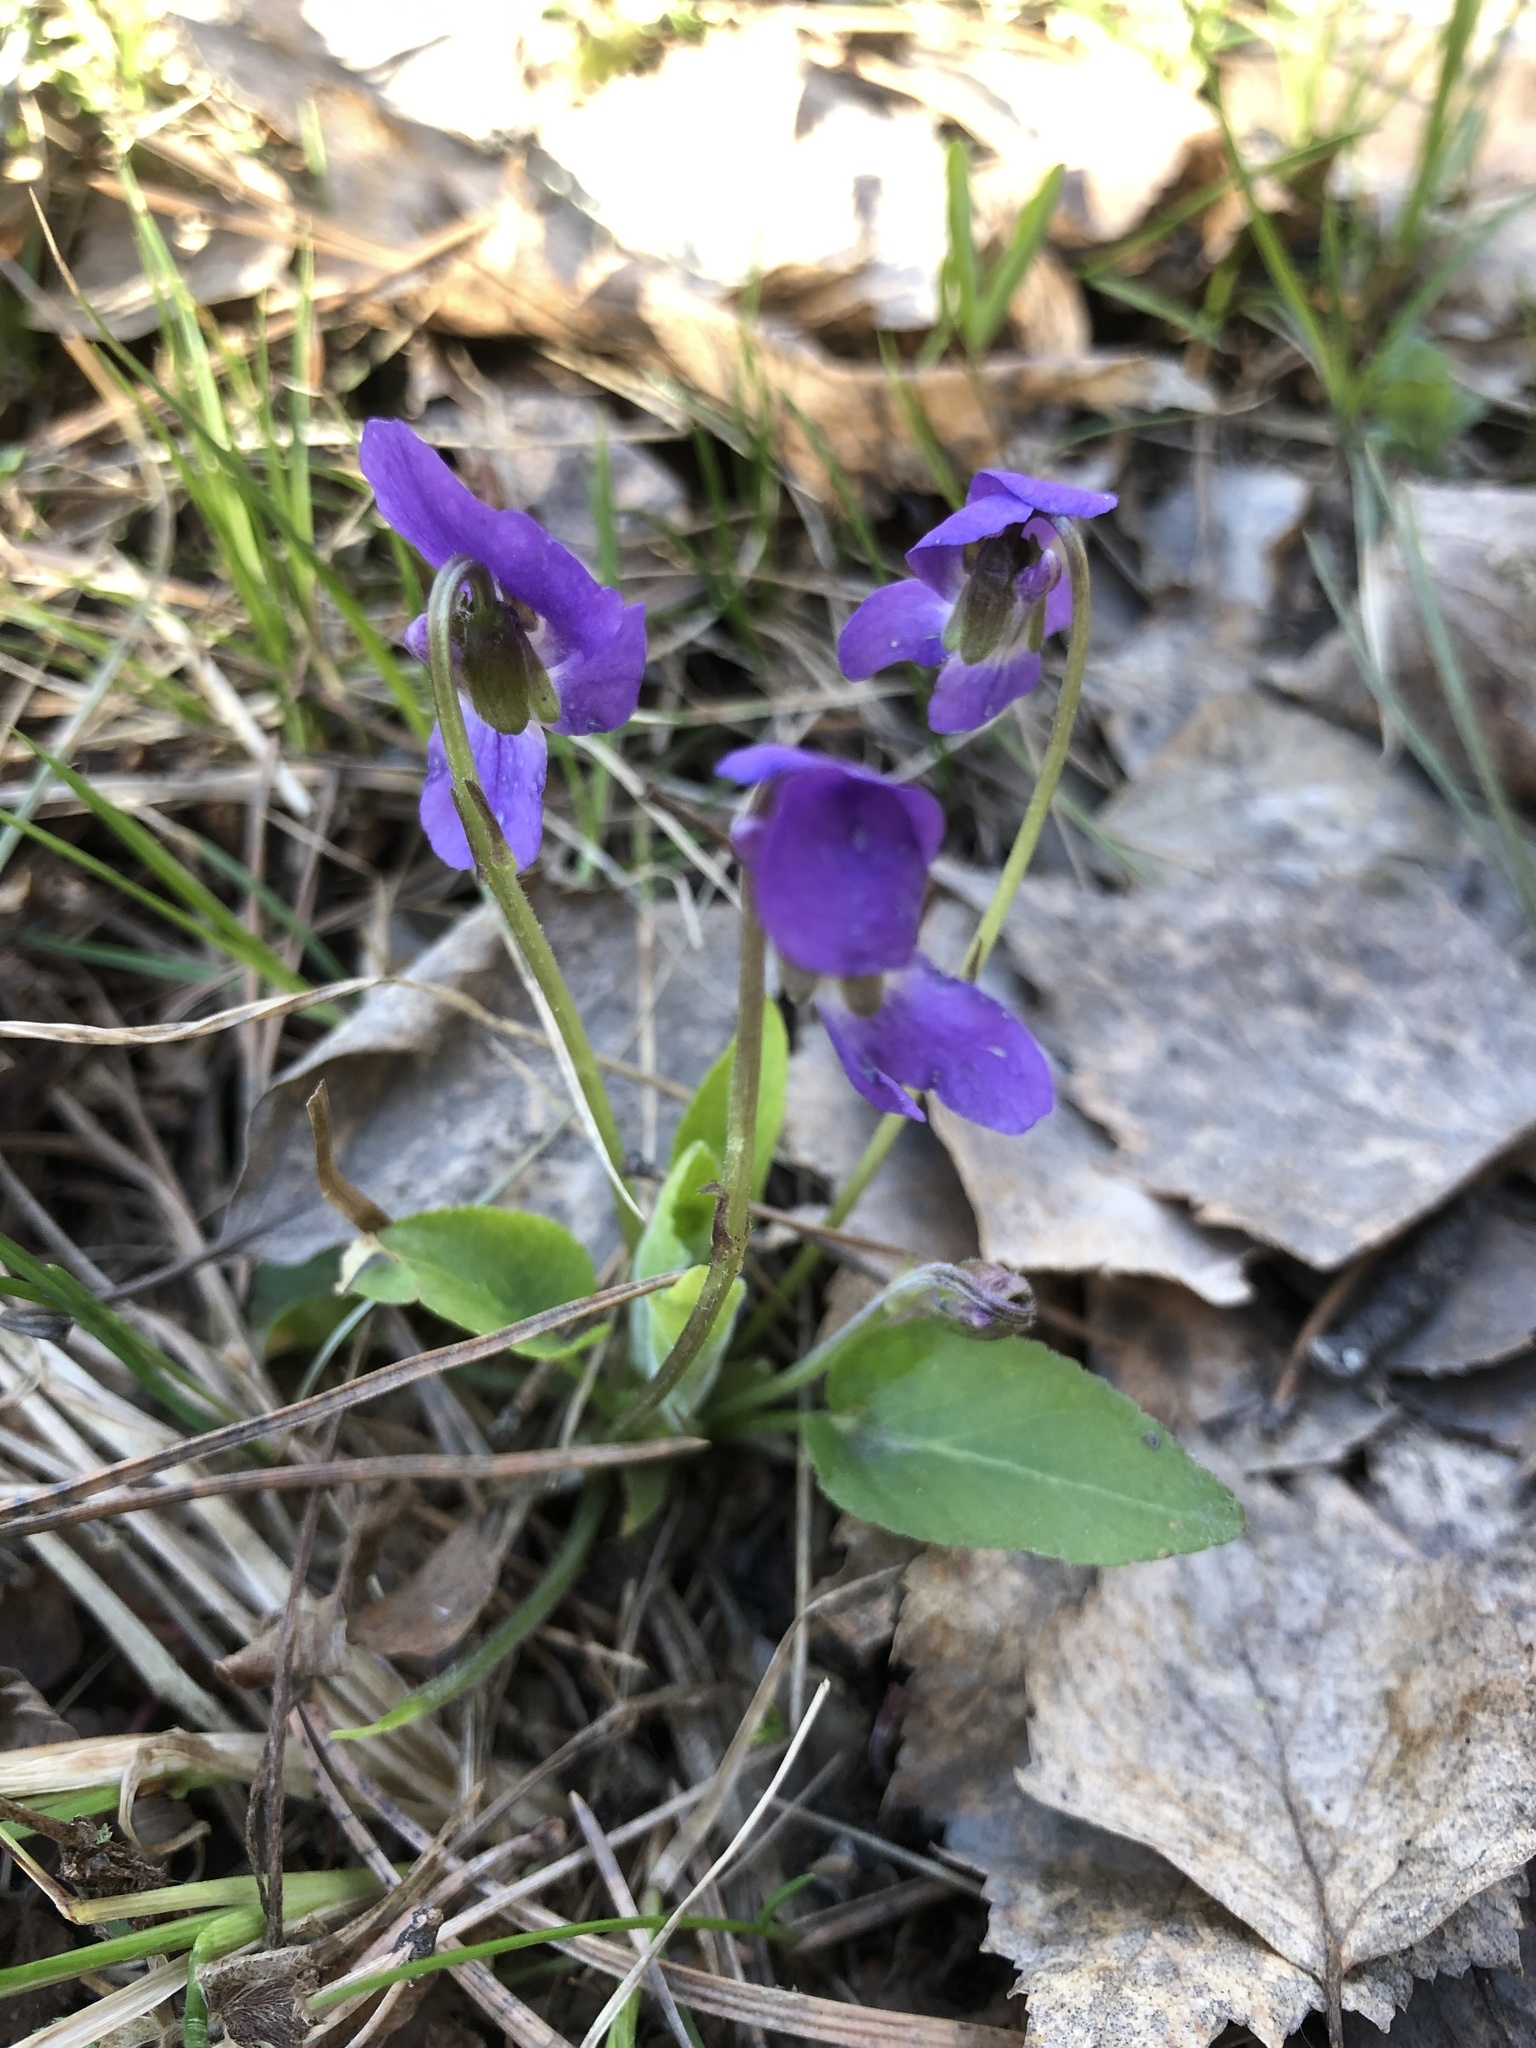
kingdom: Plantae
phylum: Tracheophyta
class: Magnoliopsida
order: Malpighiales
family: Violaceae
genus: Viola
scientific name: Viola hirta
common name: Hairy violet
